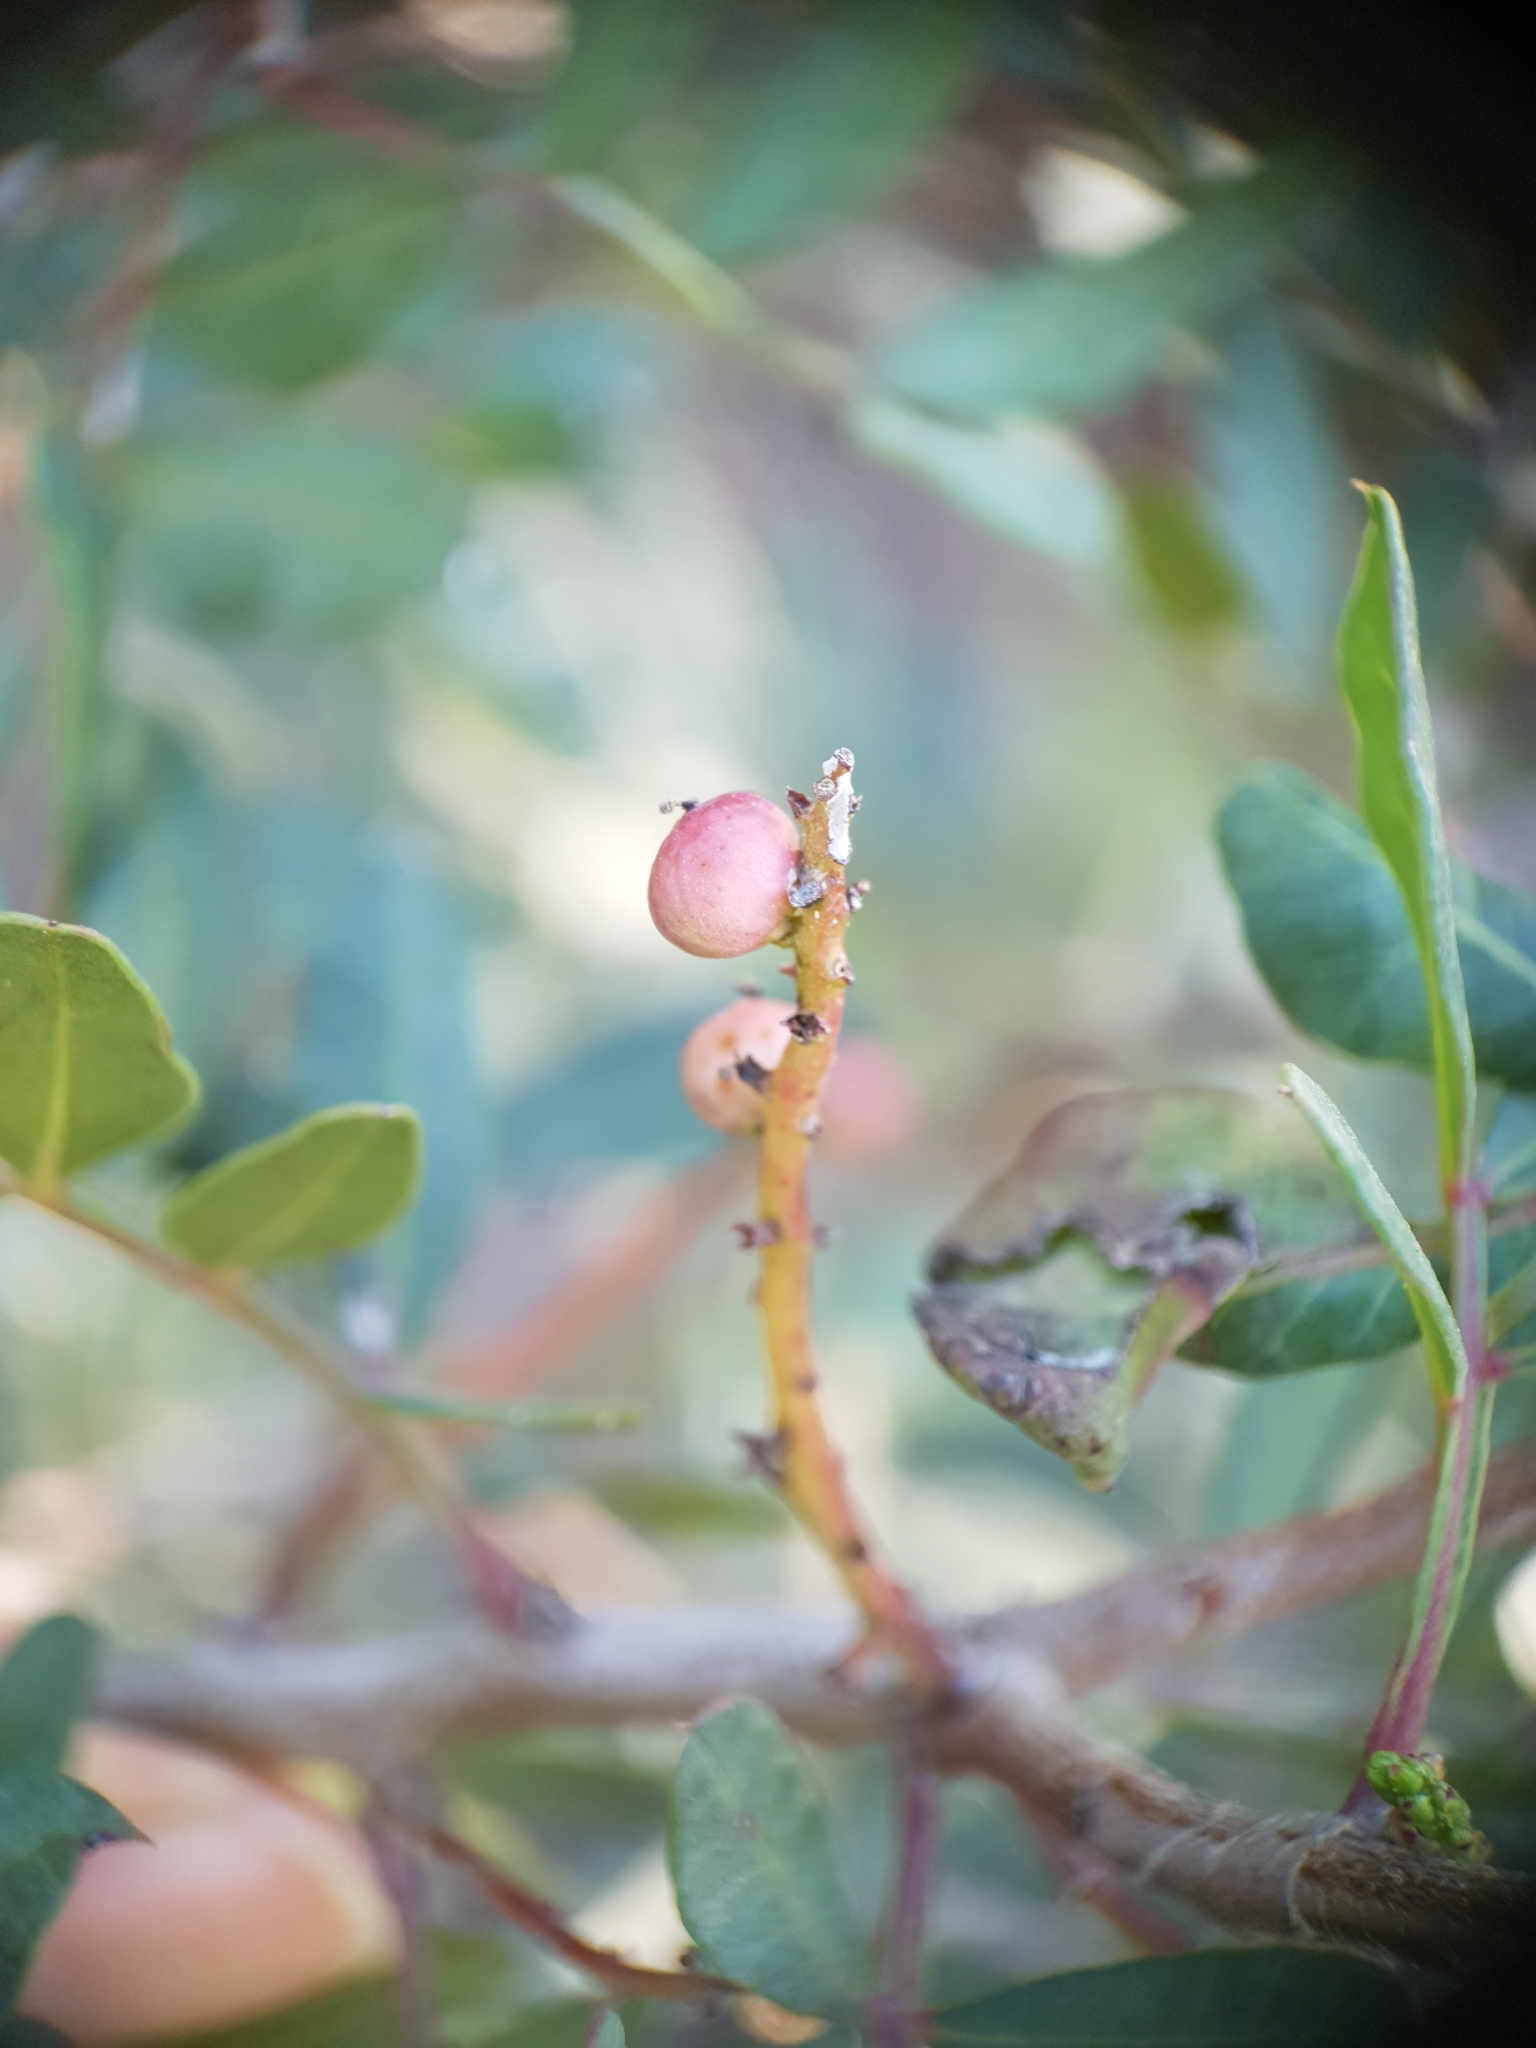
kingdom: Plantae
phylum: Tracheophyta
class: Magnoliopsida
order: Sapindales
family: Anacardiaceae
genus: Pistacia
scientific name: Pistacia lentiscus
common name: Lentisk
